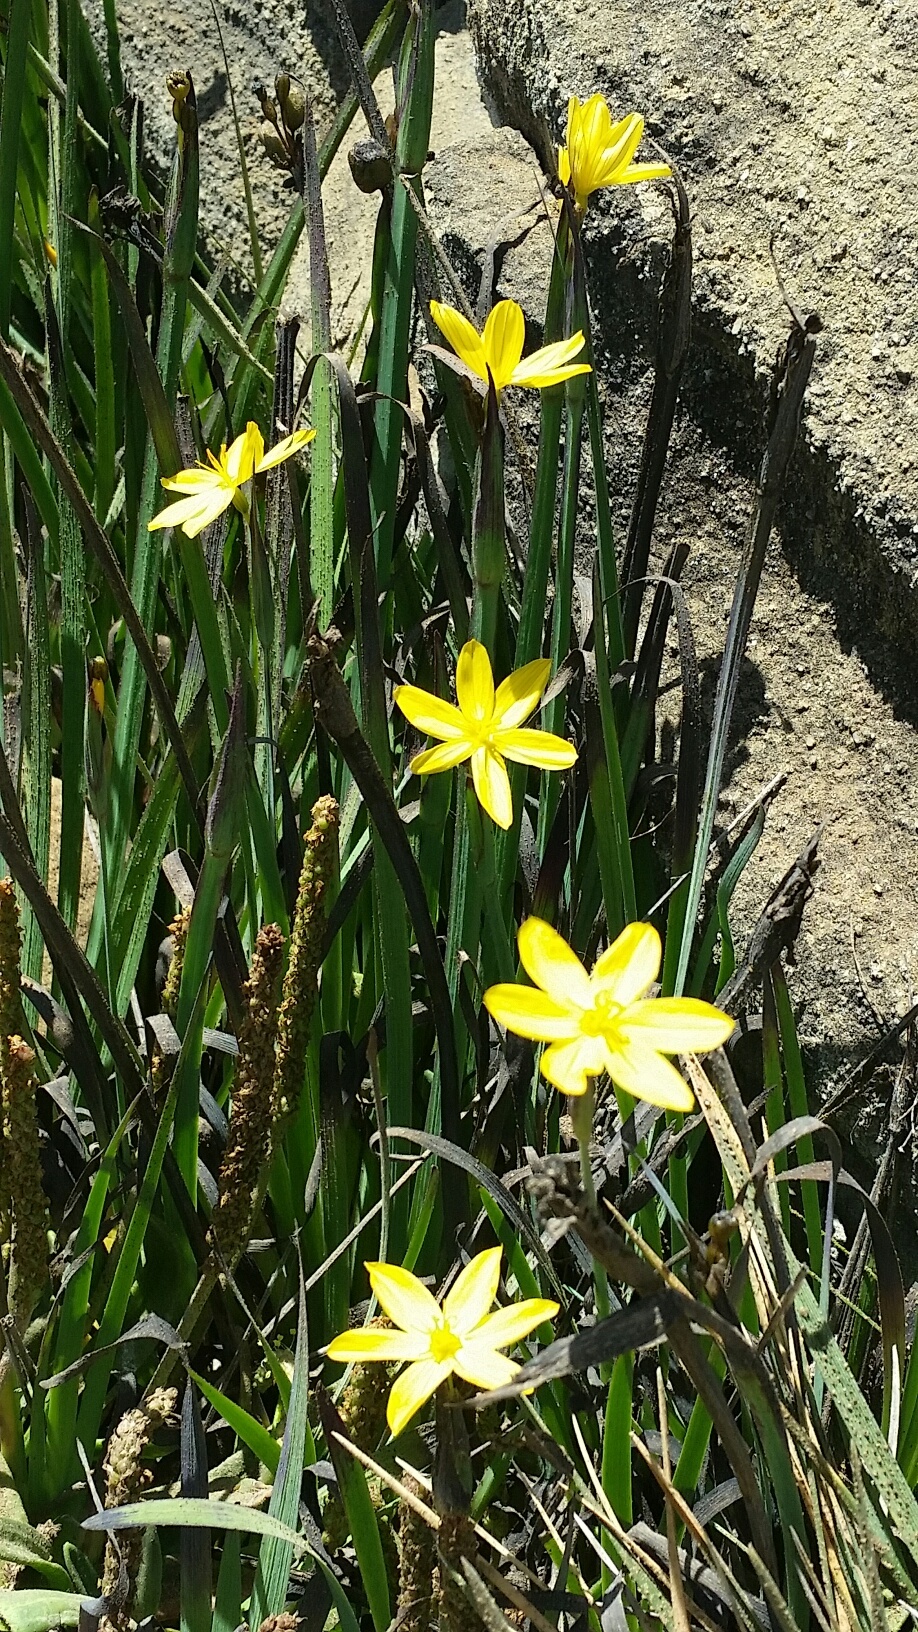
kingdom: Plantae
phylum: Tracheophyta
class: Liliopsida
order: Asparagales
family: Iridaceae
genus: Sisyrinchium
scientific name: Sisyrinchium californicum
